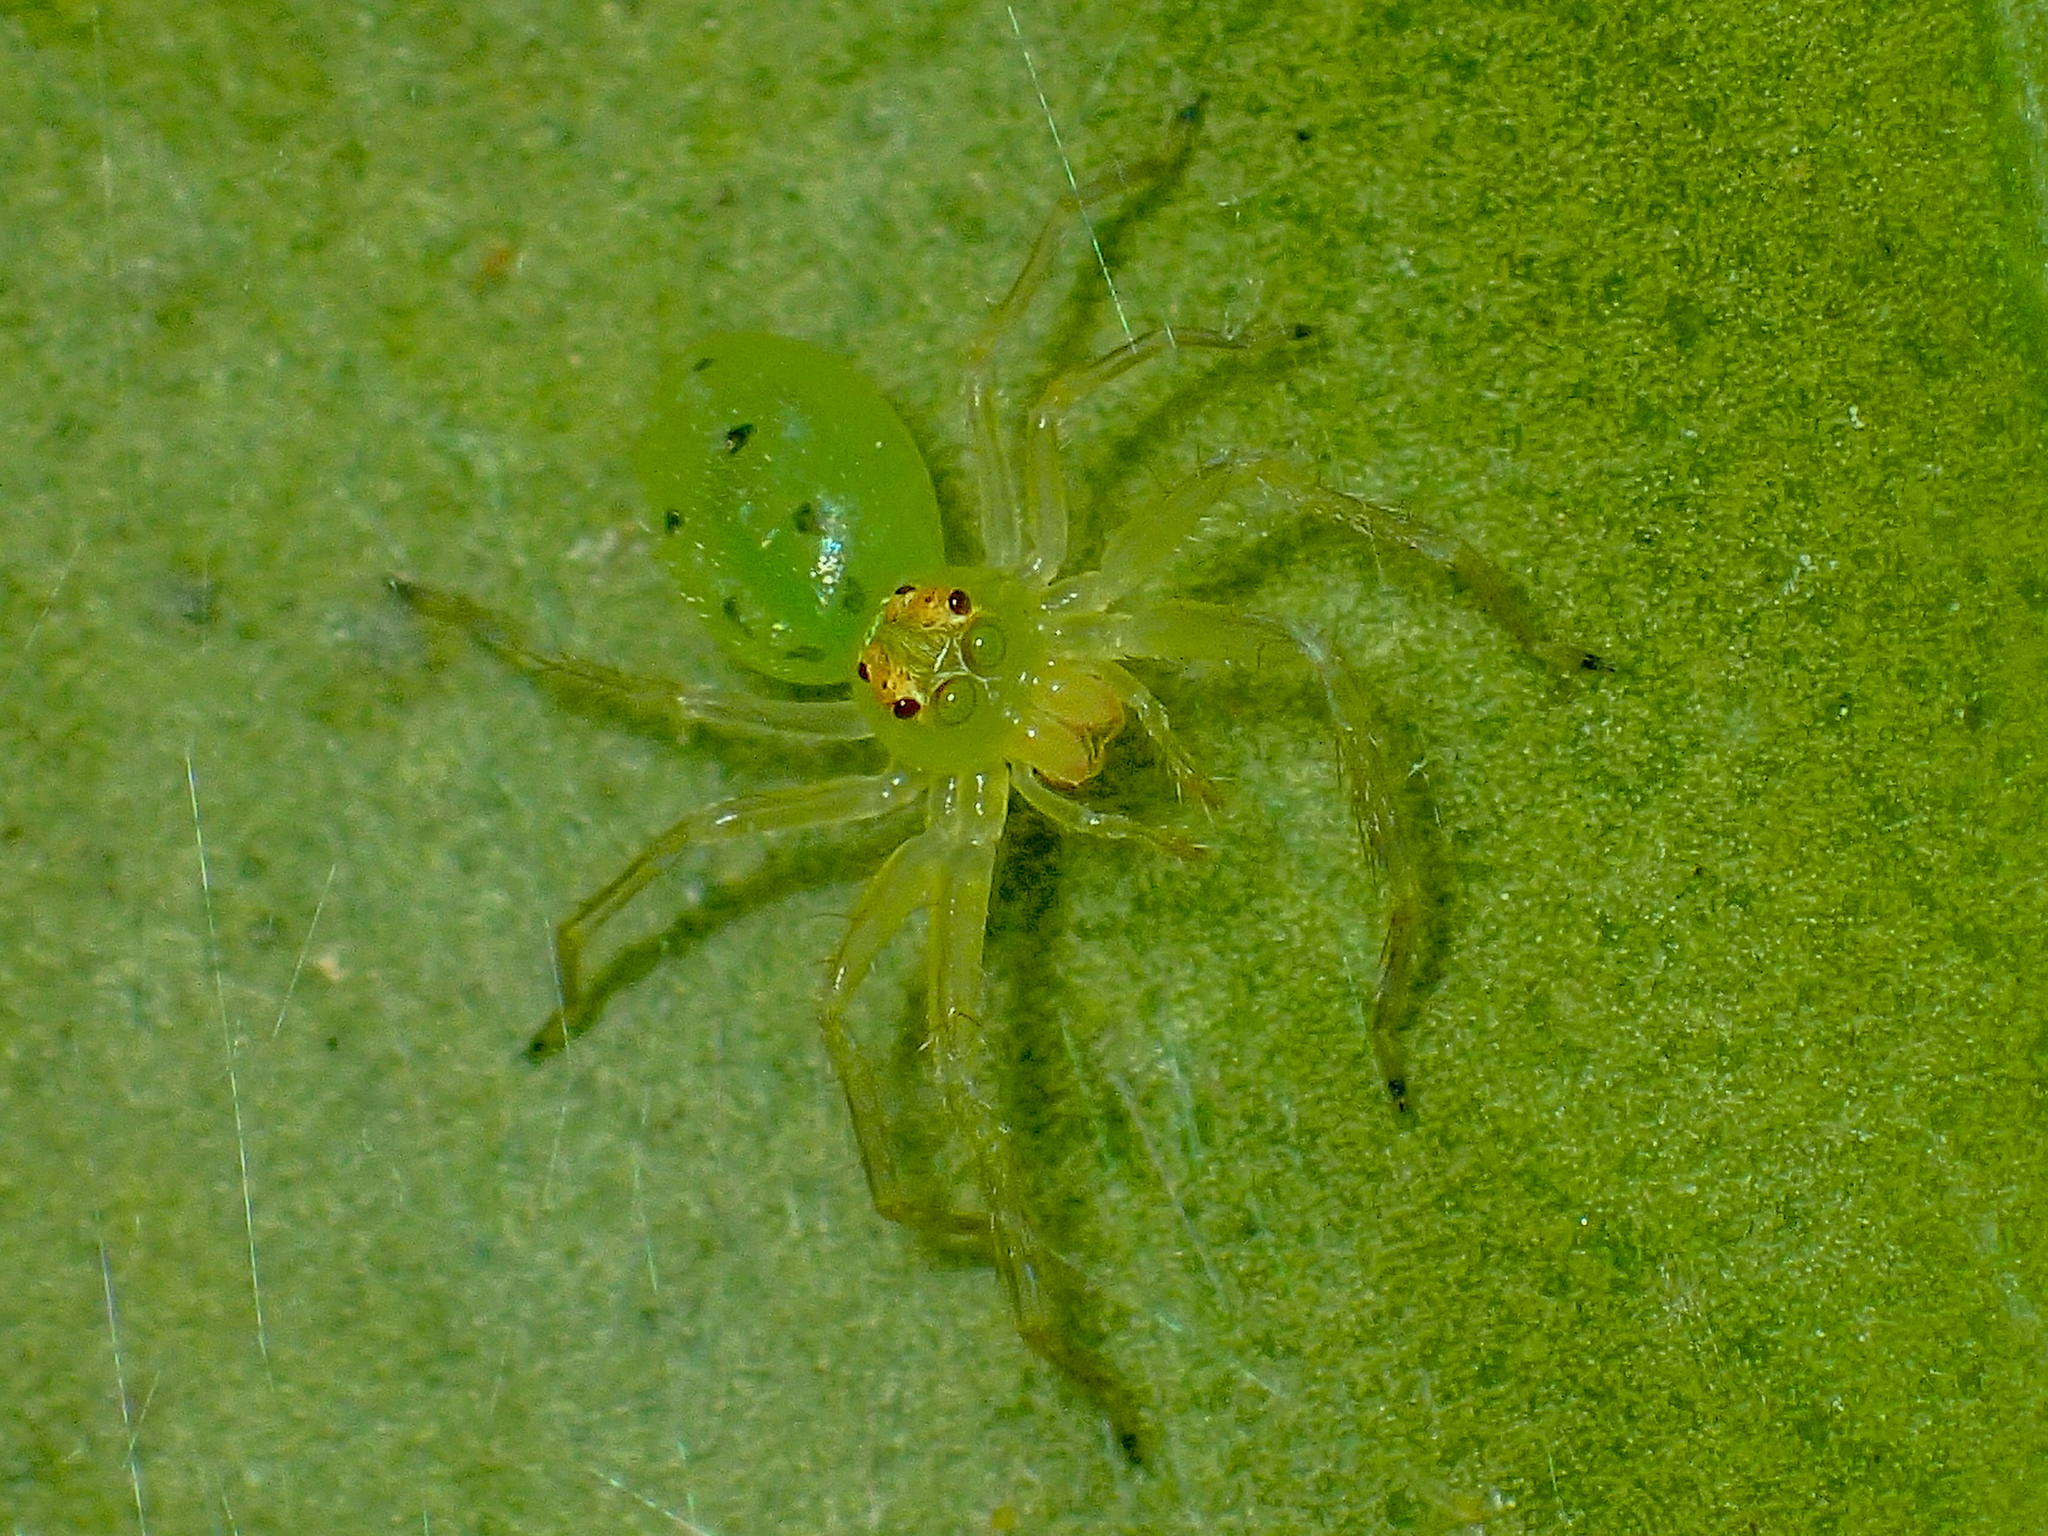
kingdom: Animalia
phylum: Arthropoda
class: Arachnida
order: Araneae
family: Salticidae
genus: Lyssomanes
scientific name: Lyssomanes viridis
